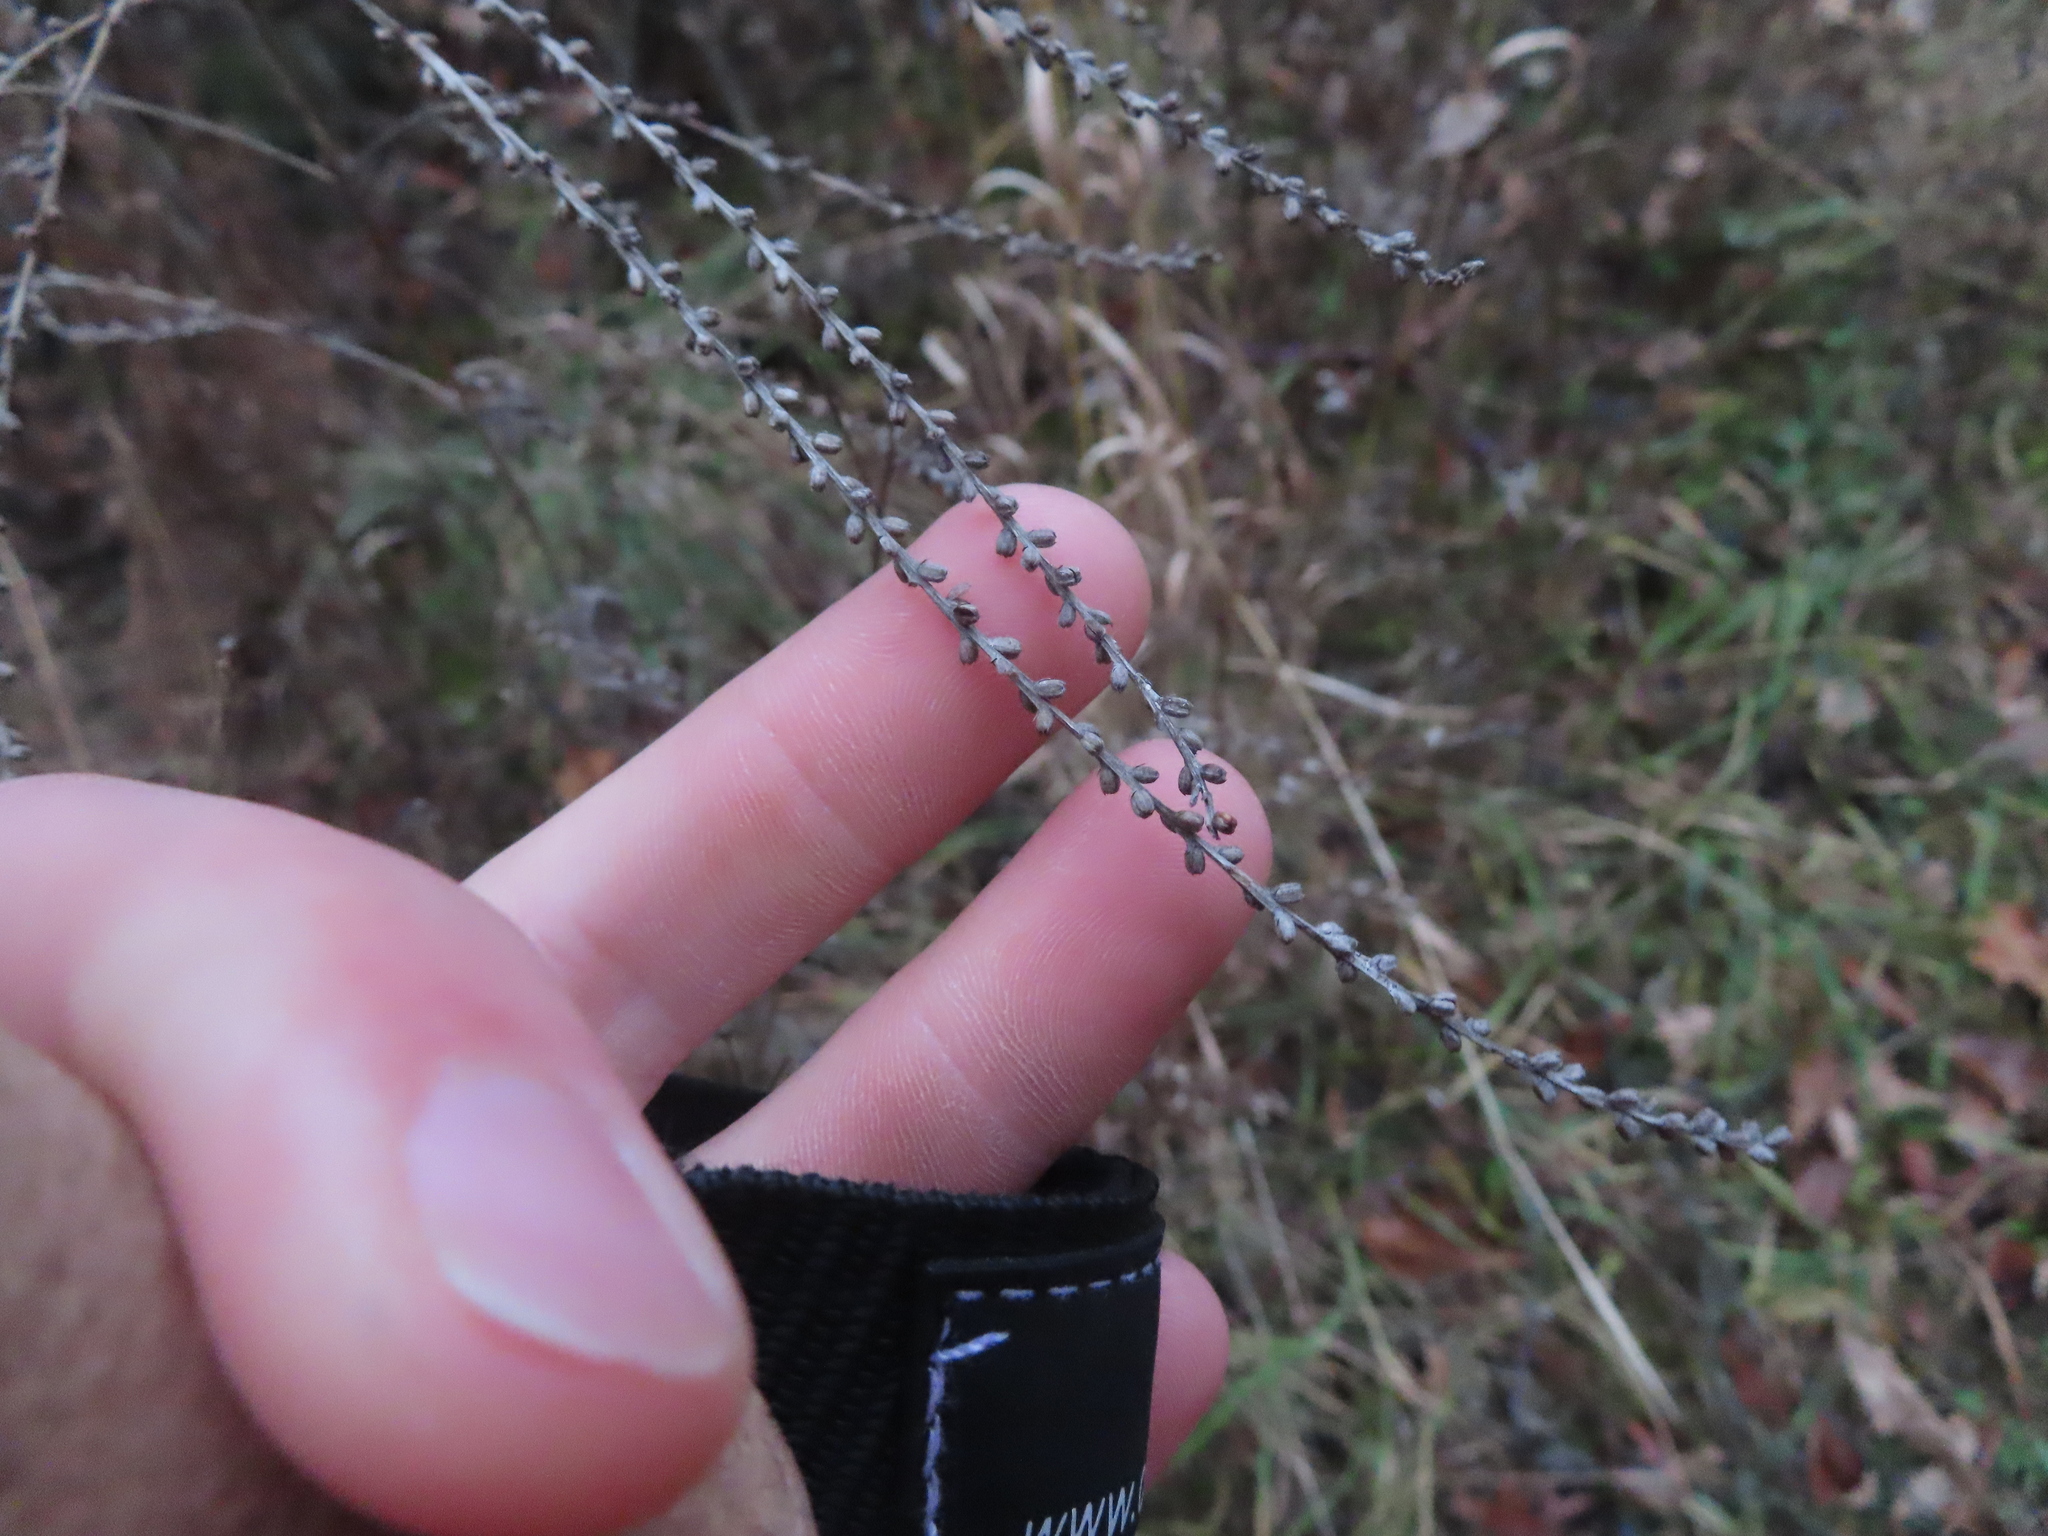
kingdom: Plantae
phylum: Tracheophyta
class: Magnoliopsida
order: Lamiales
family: Verbenaceae
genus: Verbena
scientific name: Verbena urticifolia
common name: Nettle-leaved vervain
